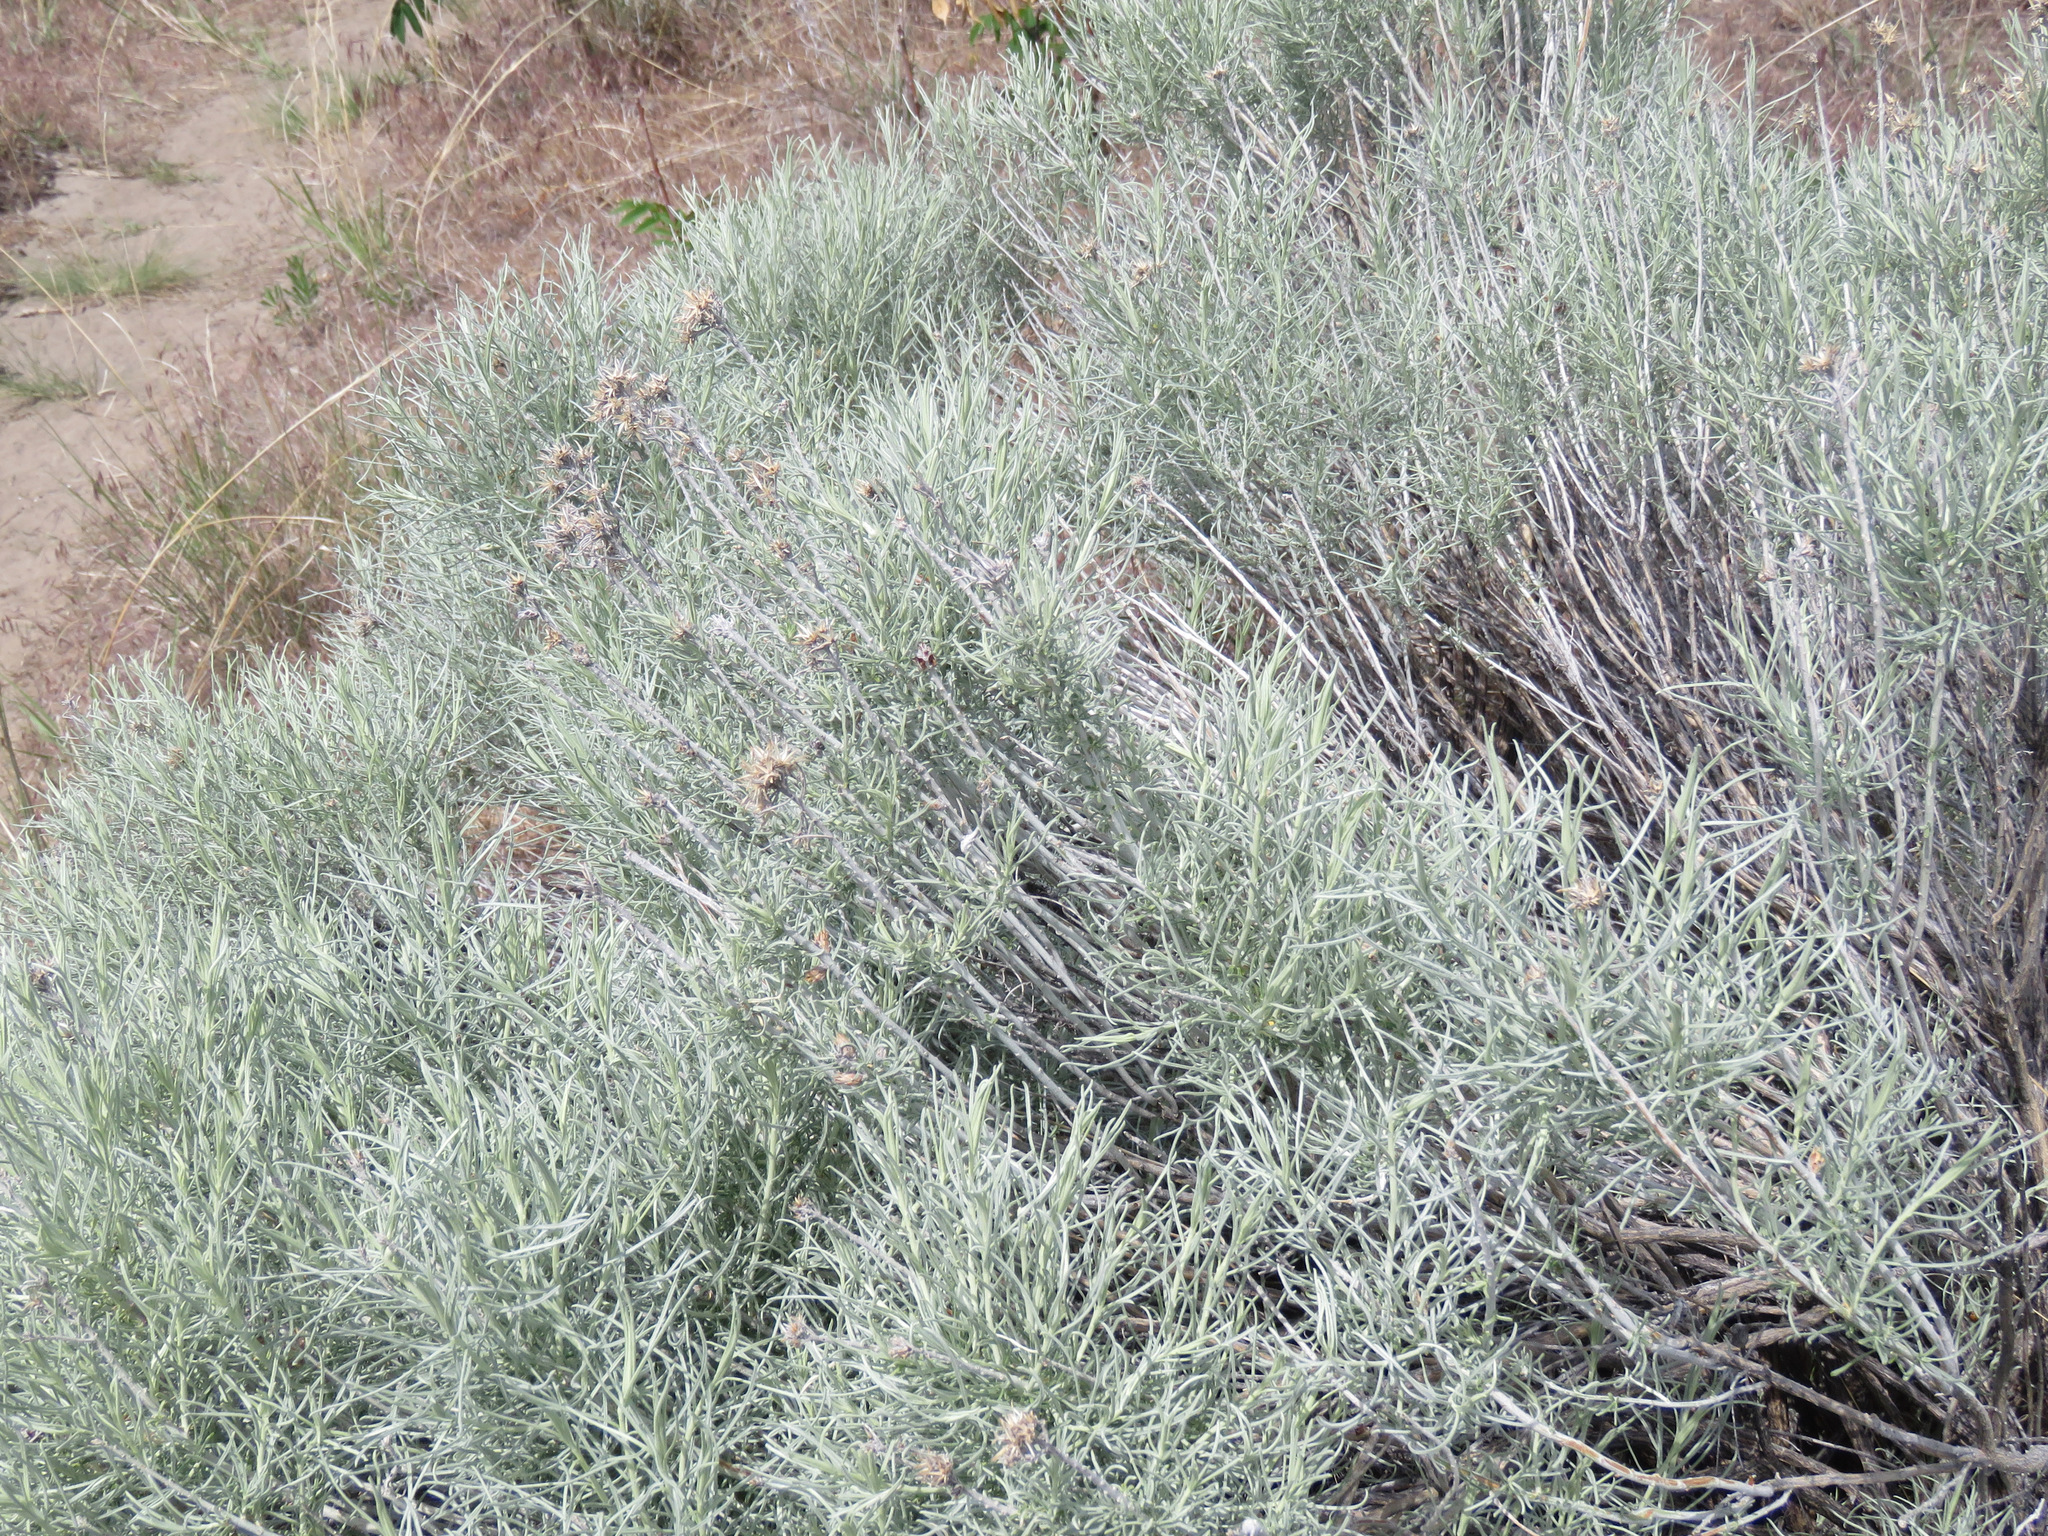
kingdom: Plantae
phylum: Tracheophyta
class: Magnoliopsida
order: Asterales
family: Asteraceae
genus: Ericameria
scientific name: Ericameria nauseosa
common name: Rubber rabbitbrush
